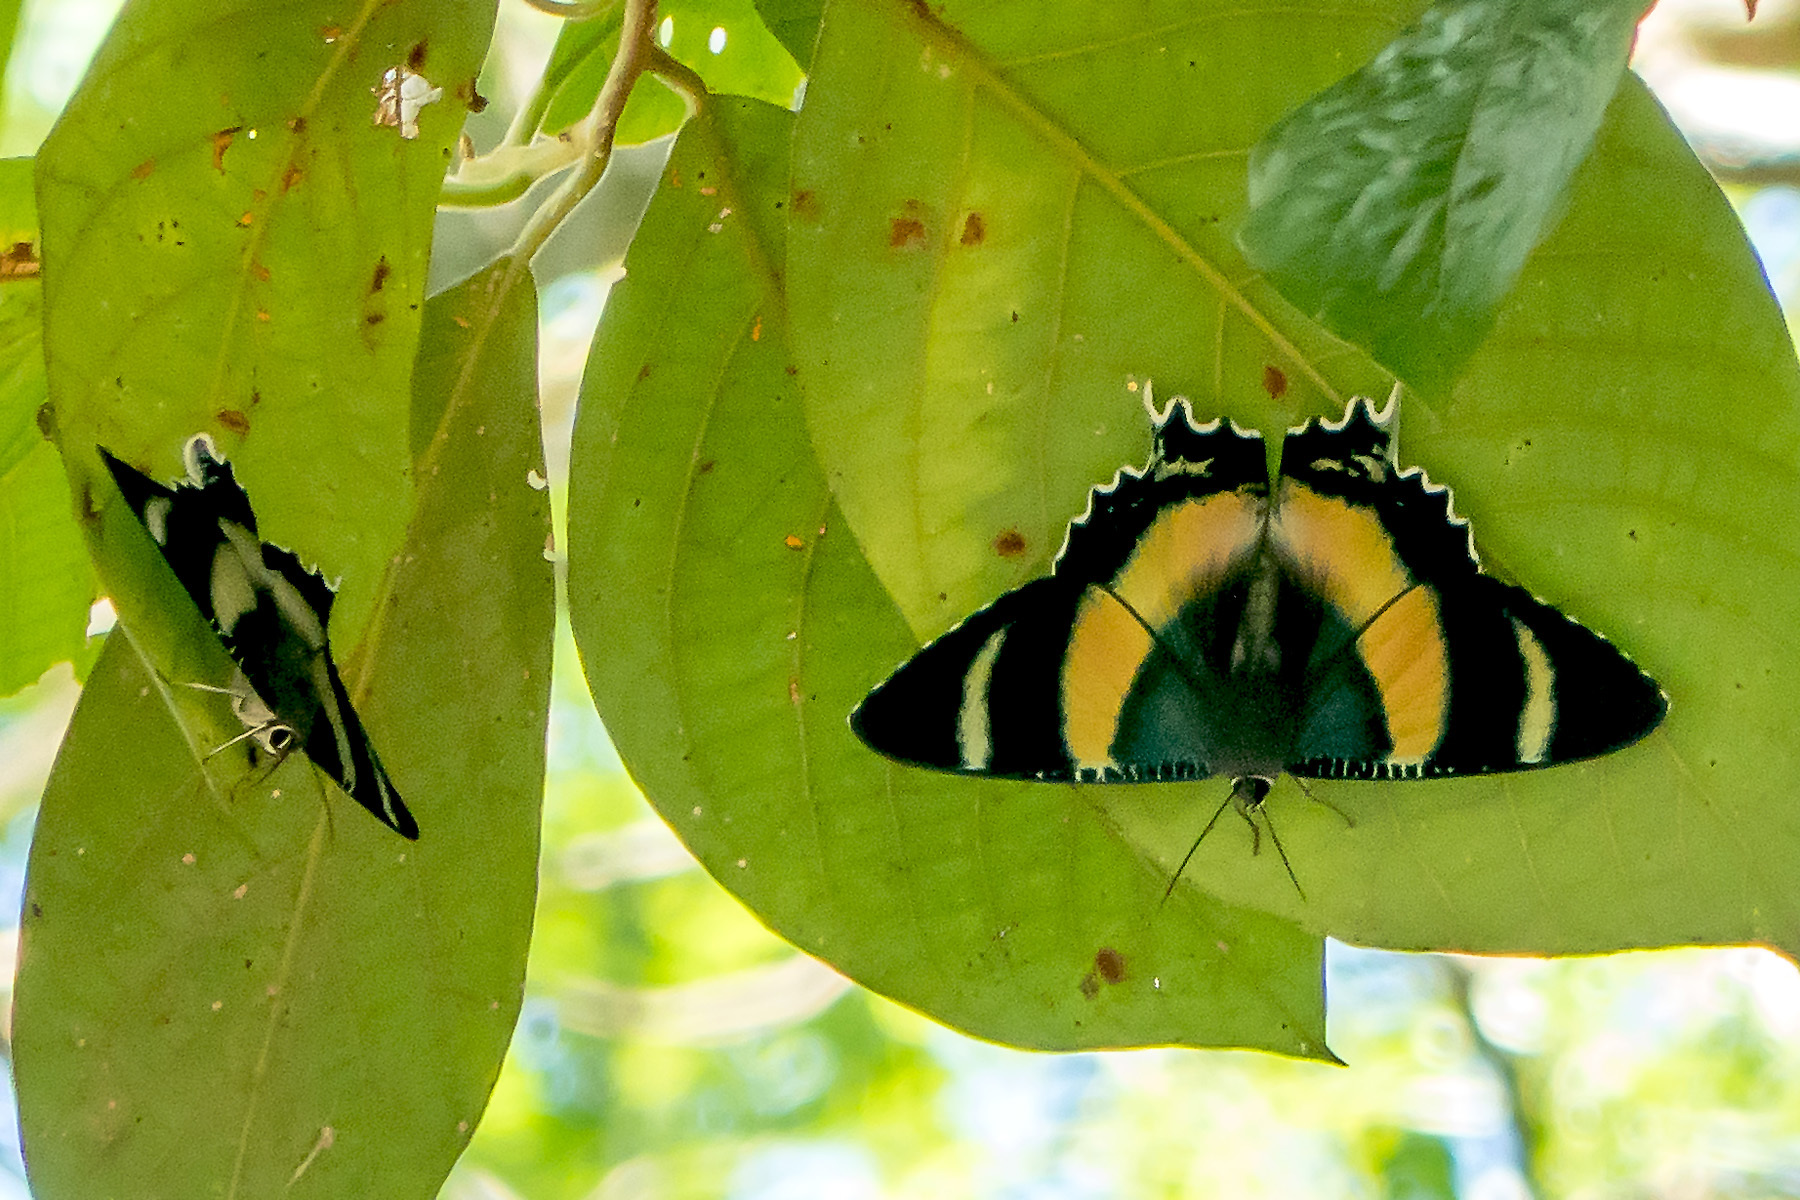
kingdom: Animalia
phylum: Arthropoda
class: Insecta
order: Lepidoptera
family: Uraniidae
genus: Alcides
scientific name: Alcides metaurus
